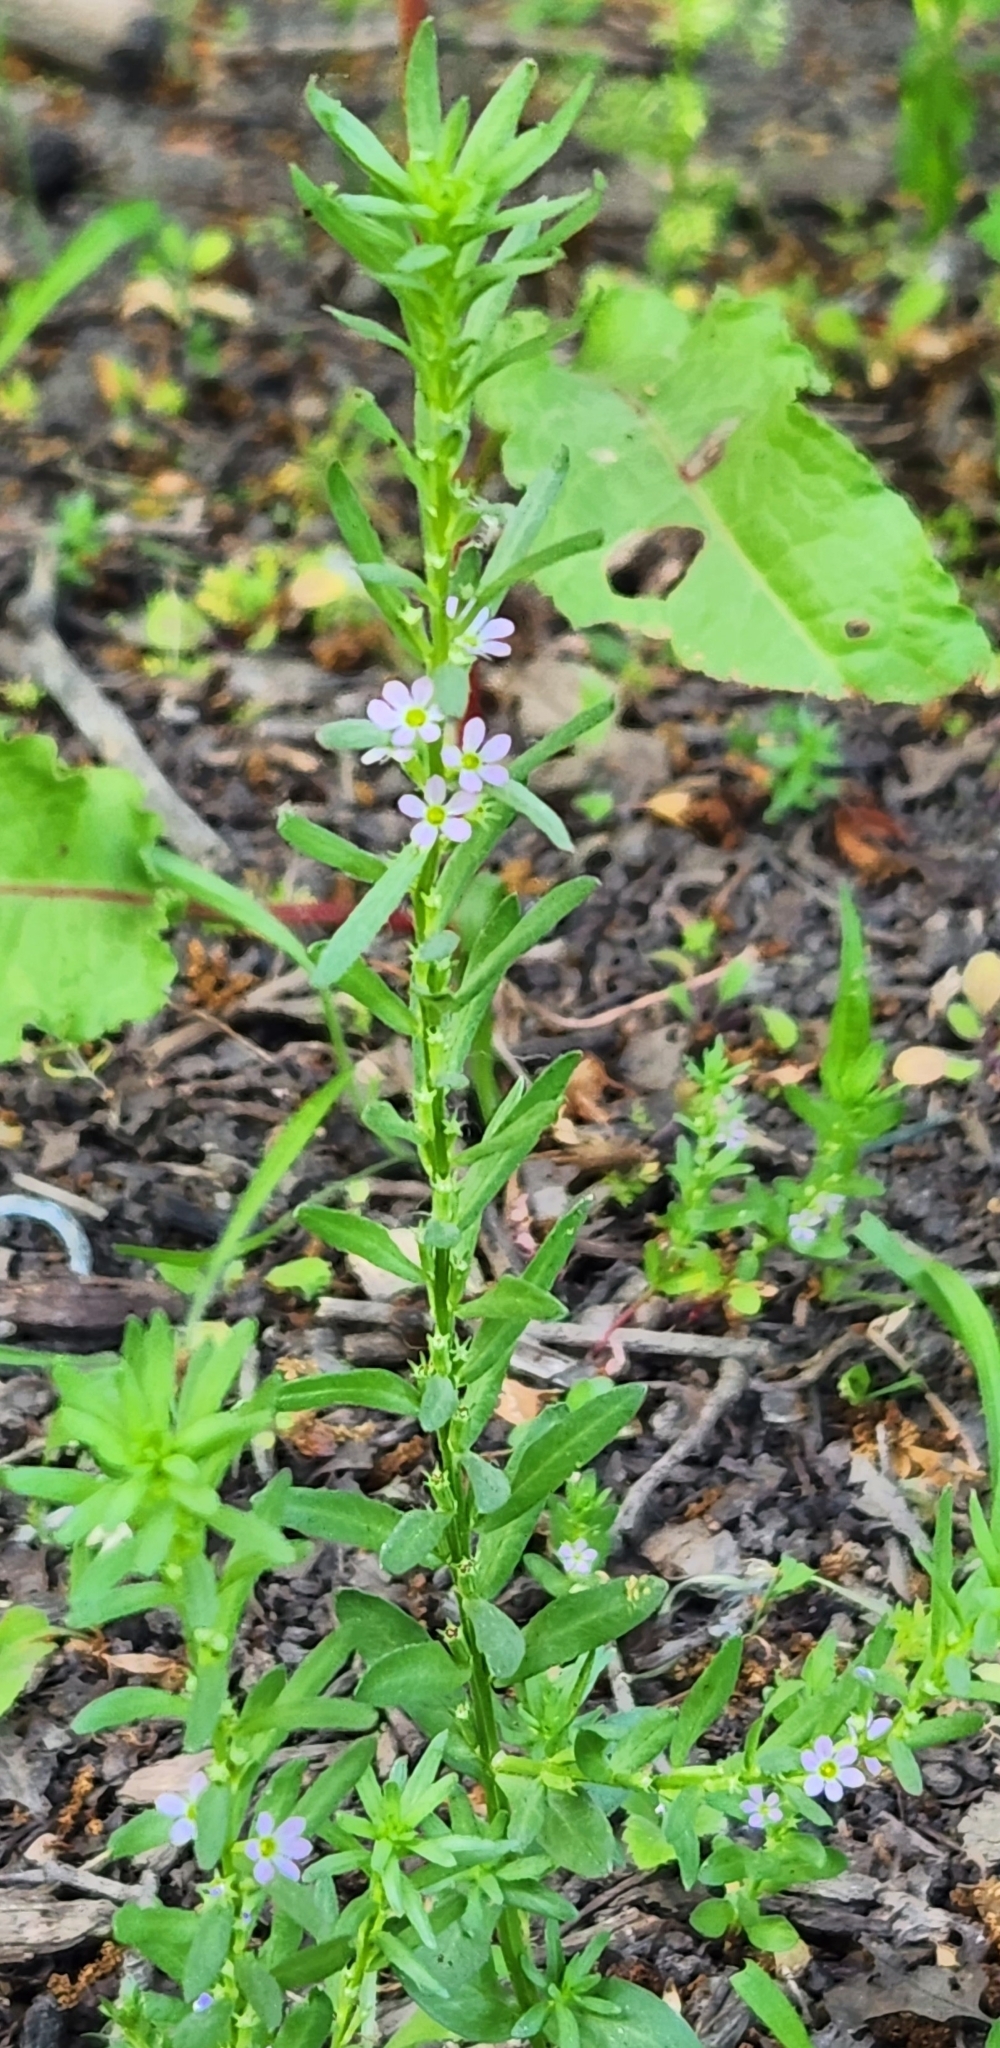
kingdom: Plantae
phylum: Tracheophyta
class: Magnoliopsida
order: Myrtales
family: Lythraceae
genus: Lythrum
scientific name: Lythrum hyssopifolia
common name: Grass-poly
